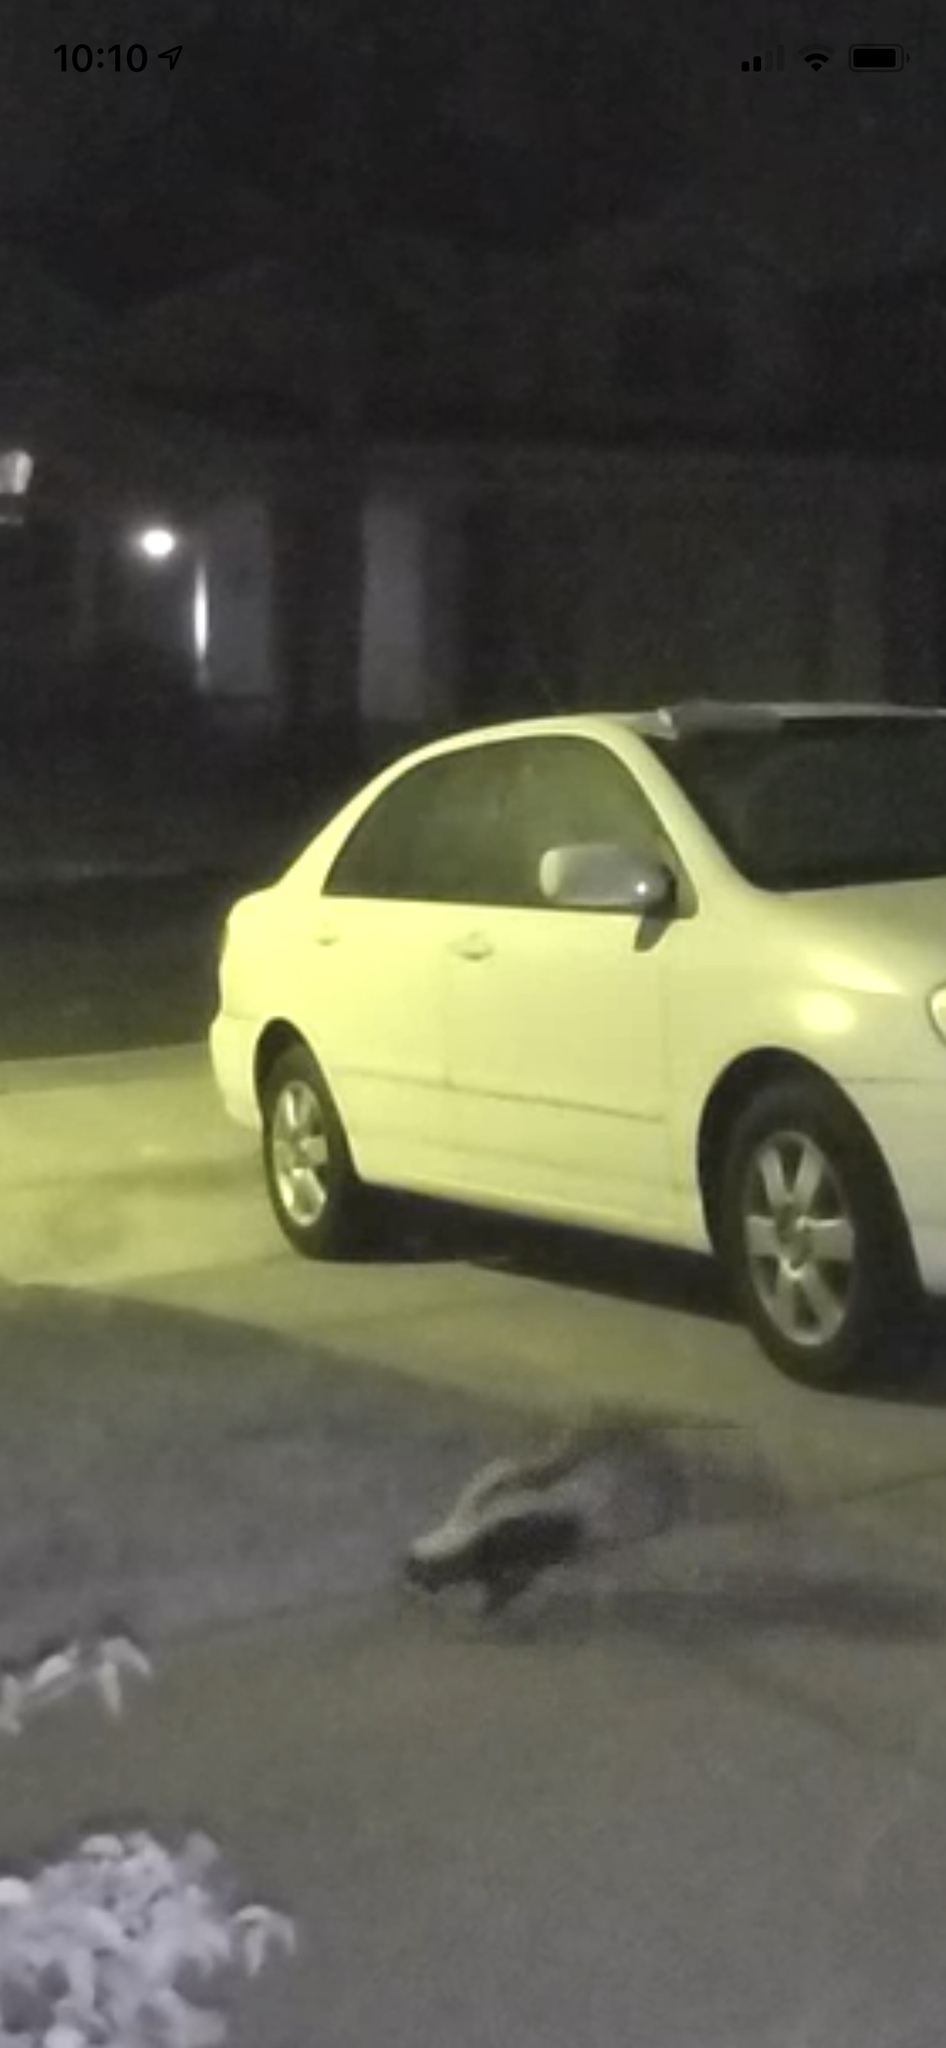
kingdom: Animalia
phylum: Chordata
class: Mammalia
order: Carnivora
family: Mephitidae
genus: Mephitis
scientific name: Mephitis mephitis
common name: Striped skunk
